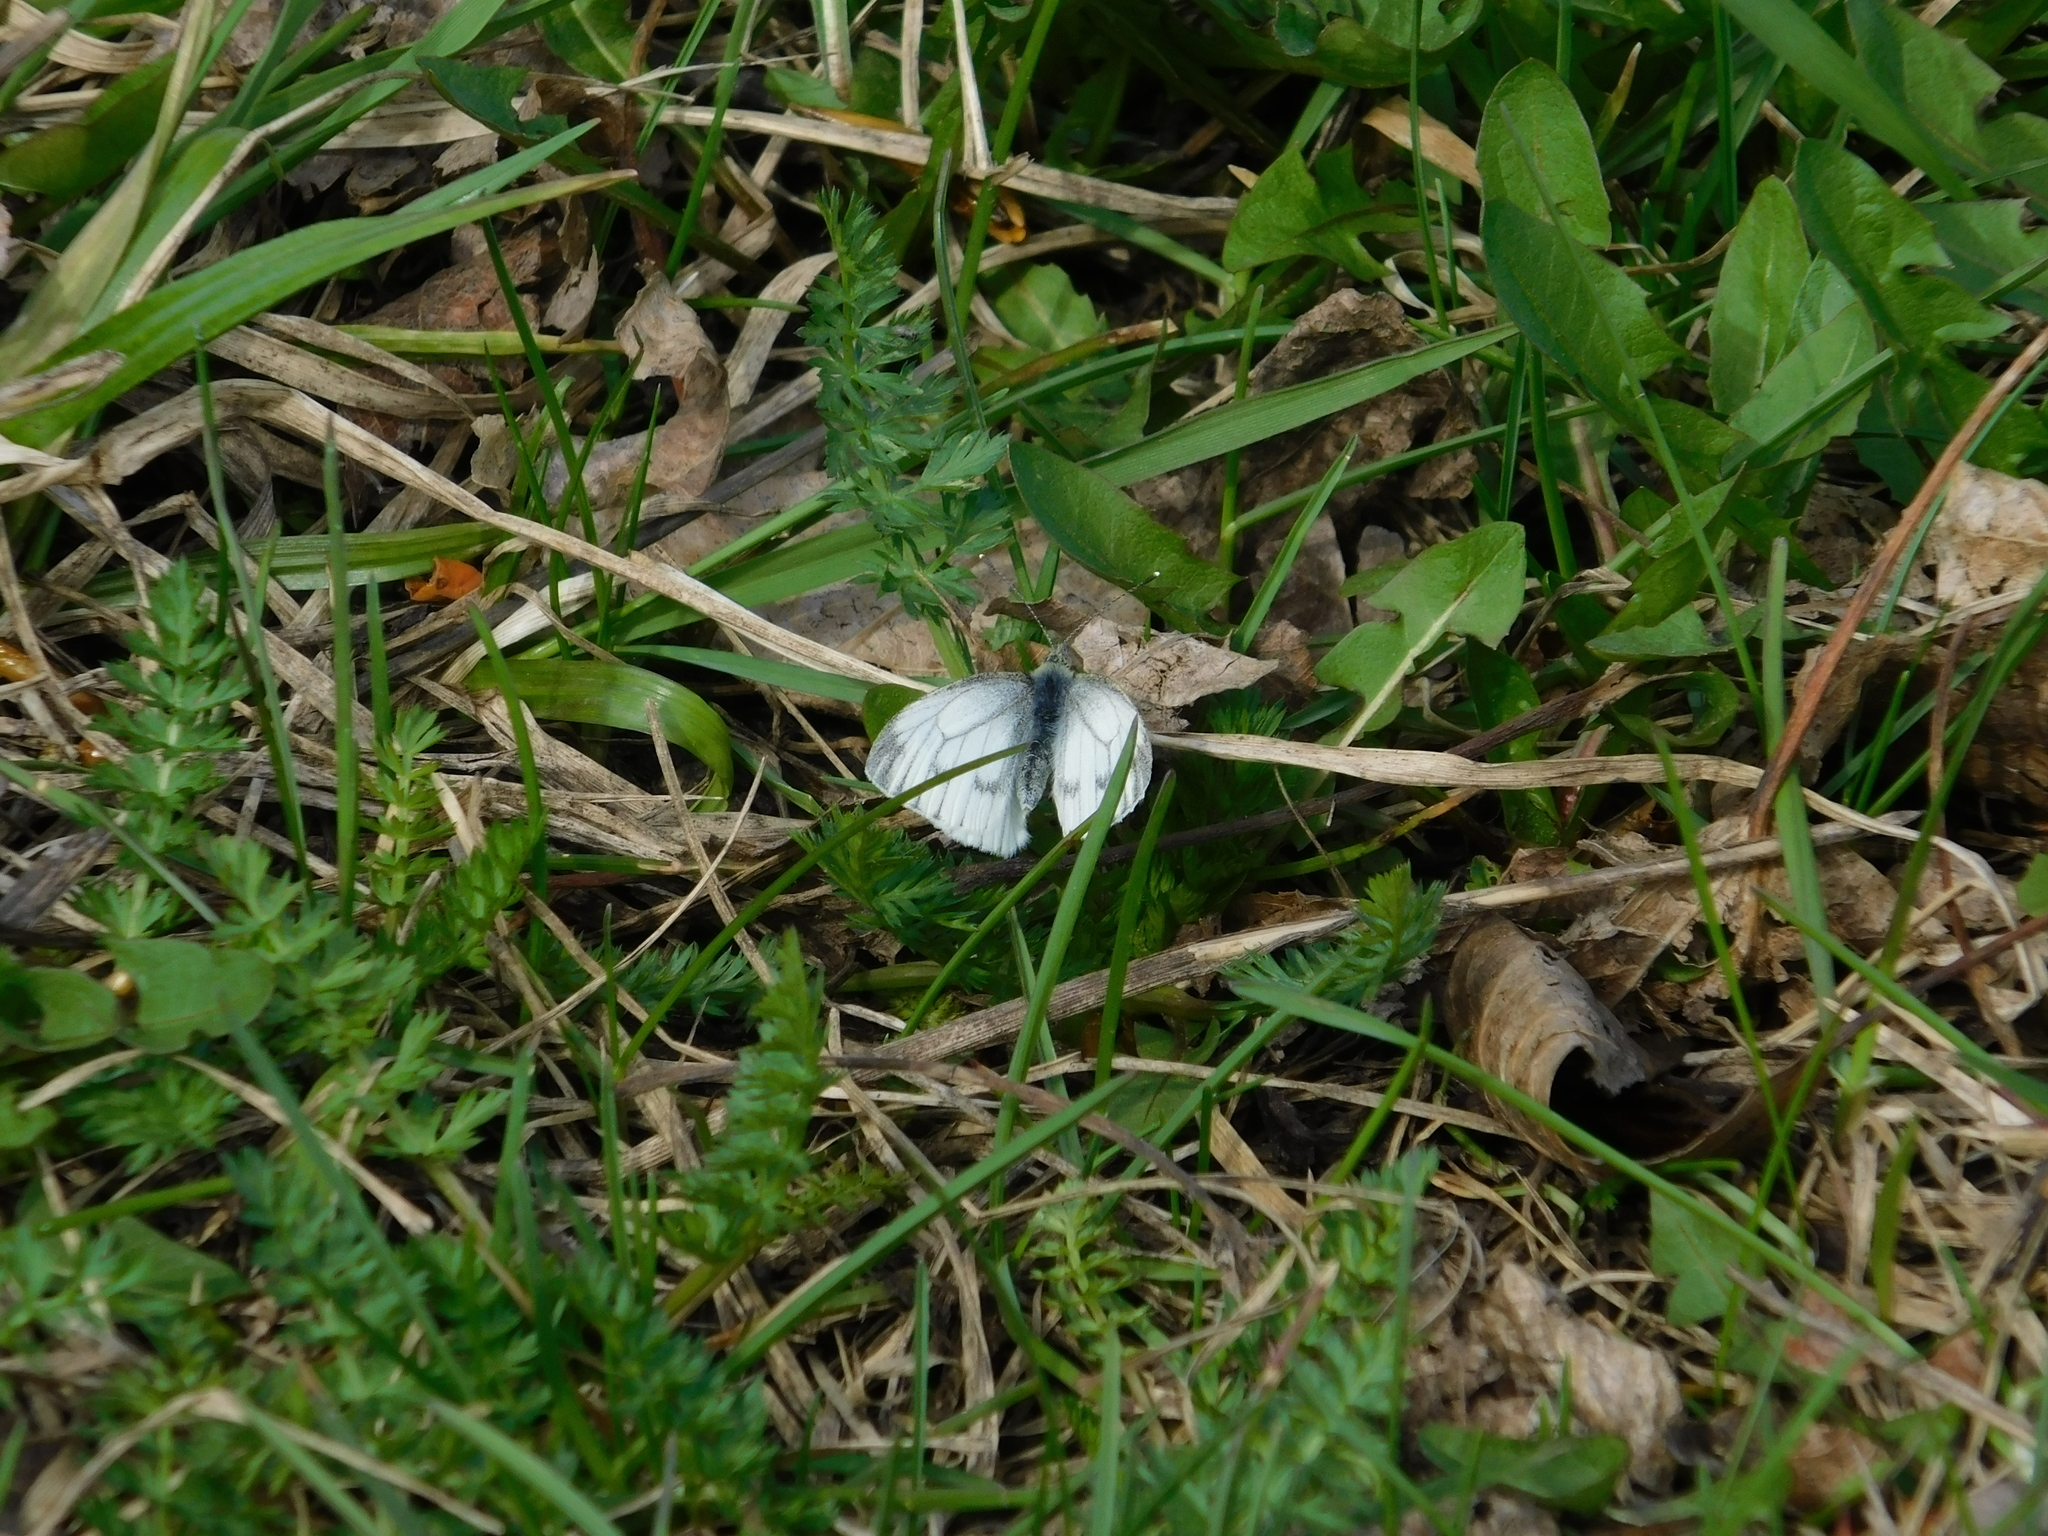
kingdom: Animalia
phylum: Arthropoda
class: Insecta
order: Lepidoptera
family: Pieridae
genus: Pieris
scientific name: Pieris napi
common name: Green-veined white
